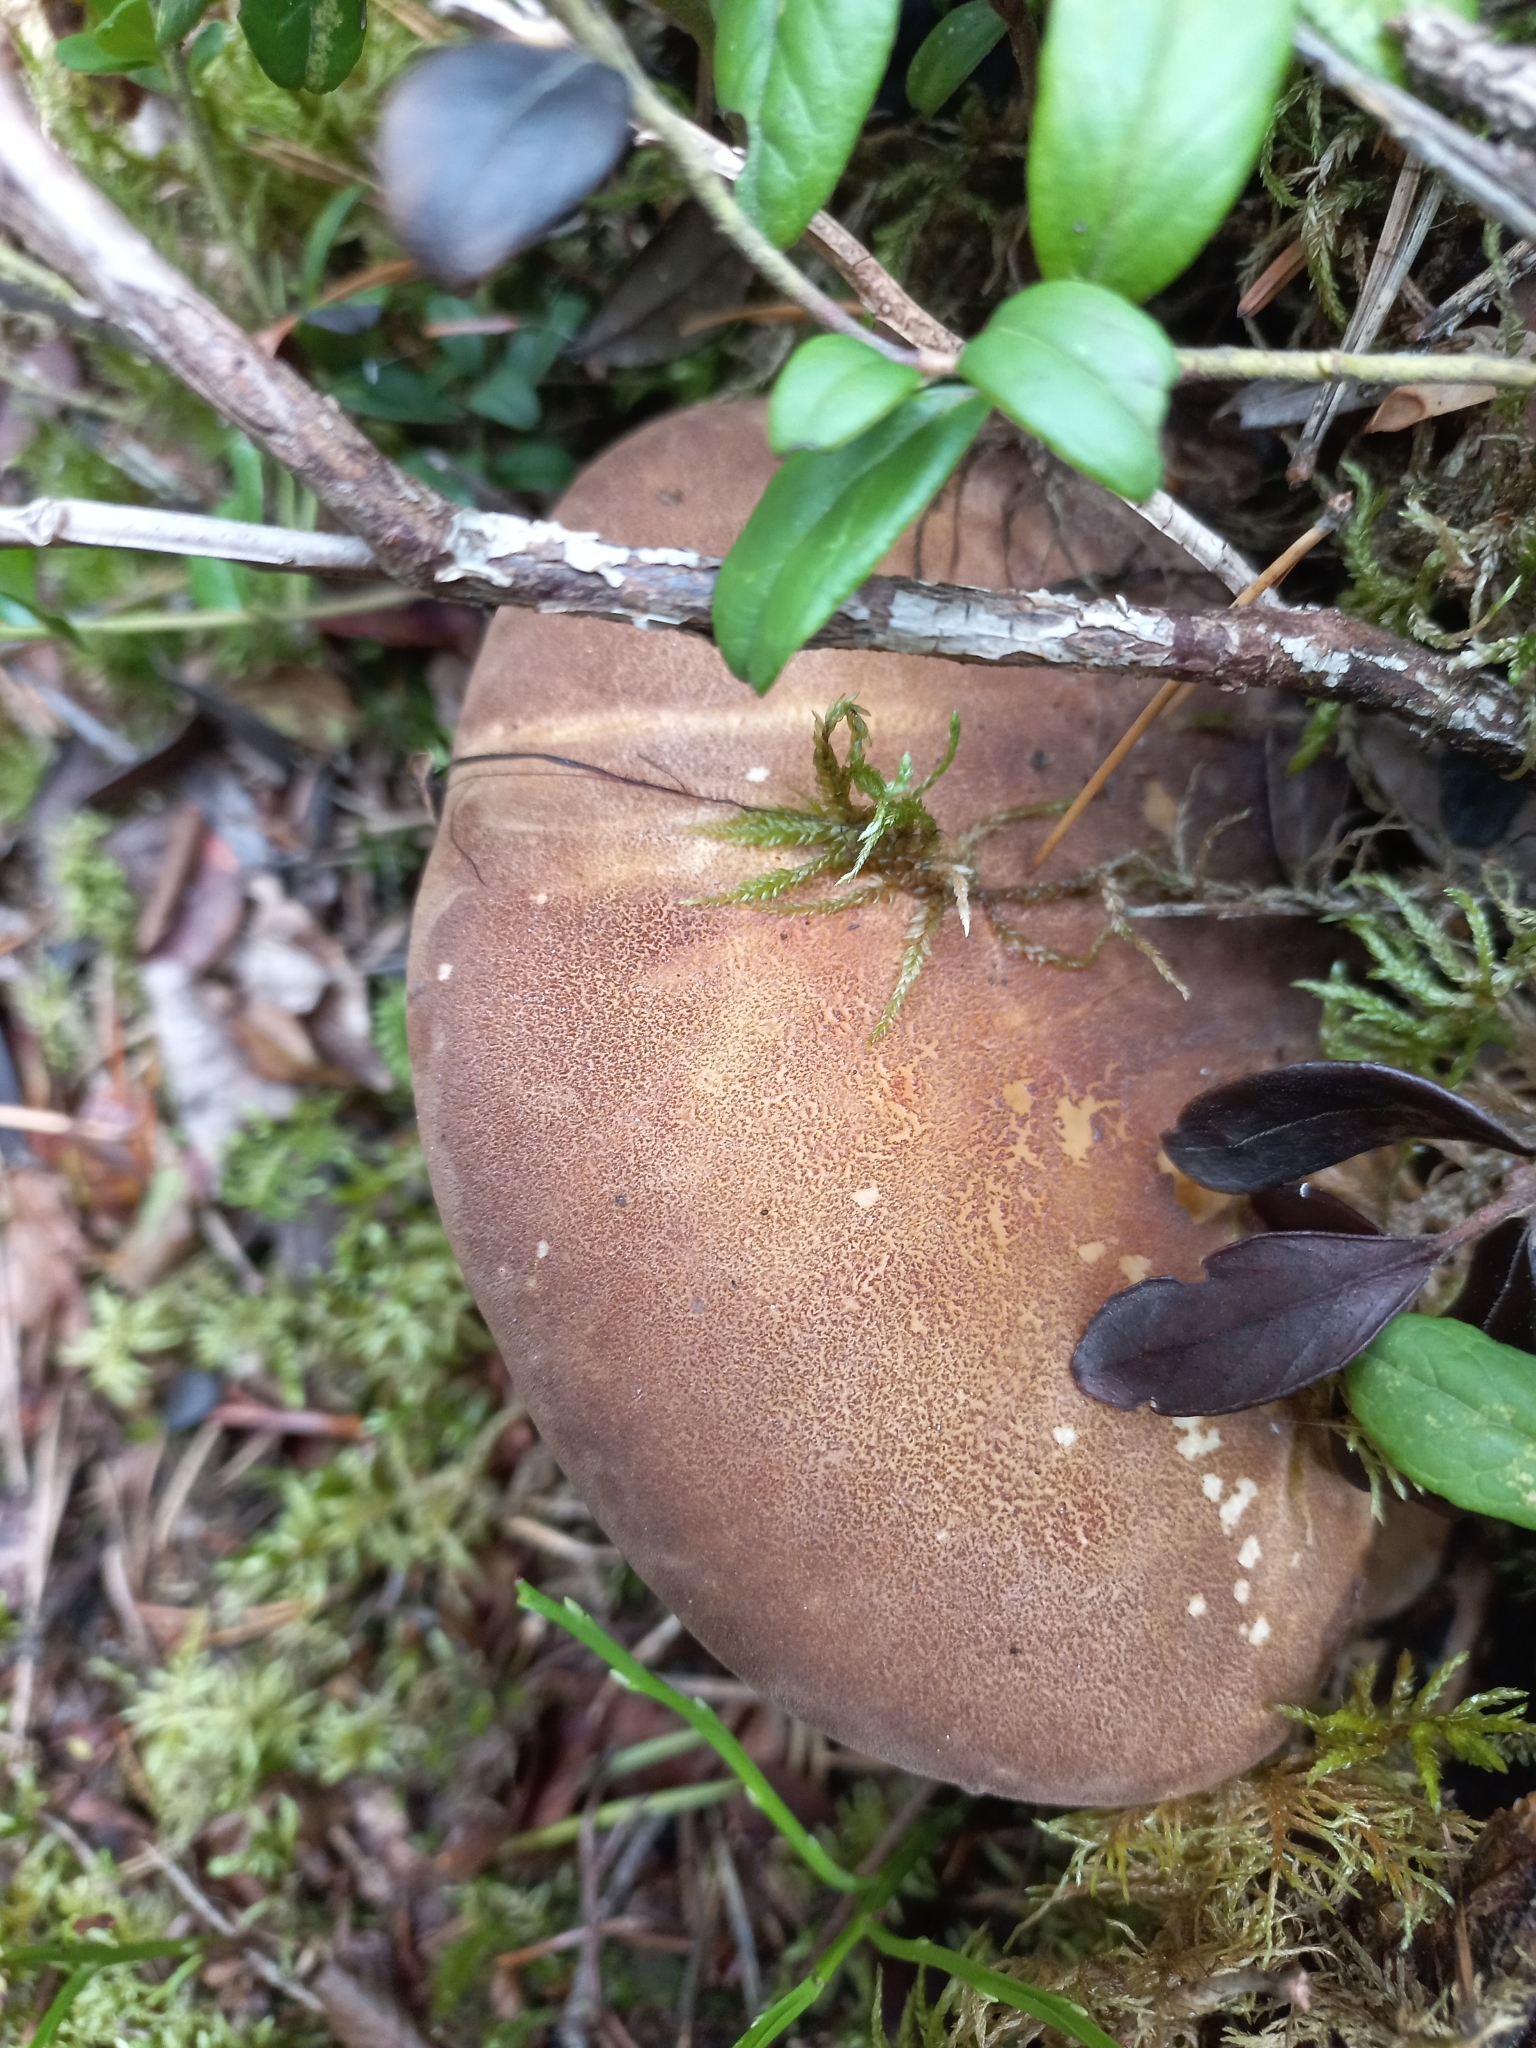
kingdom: Fungi
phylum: Basidiomycota
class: Agaricomycetes
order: Boletales
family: Tapinellaceae
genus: Tapinella
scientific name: Tapinella atrotomentosa
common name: Velvet rollrim
